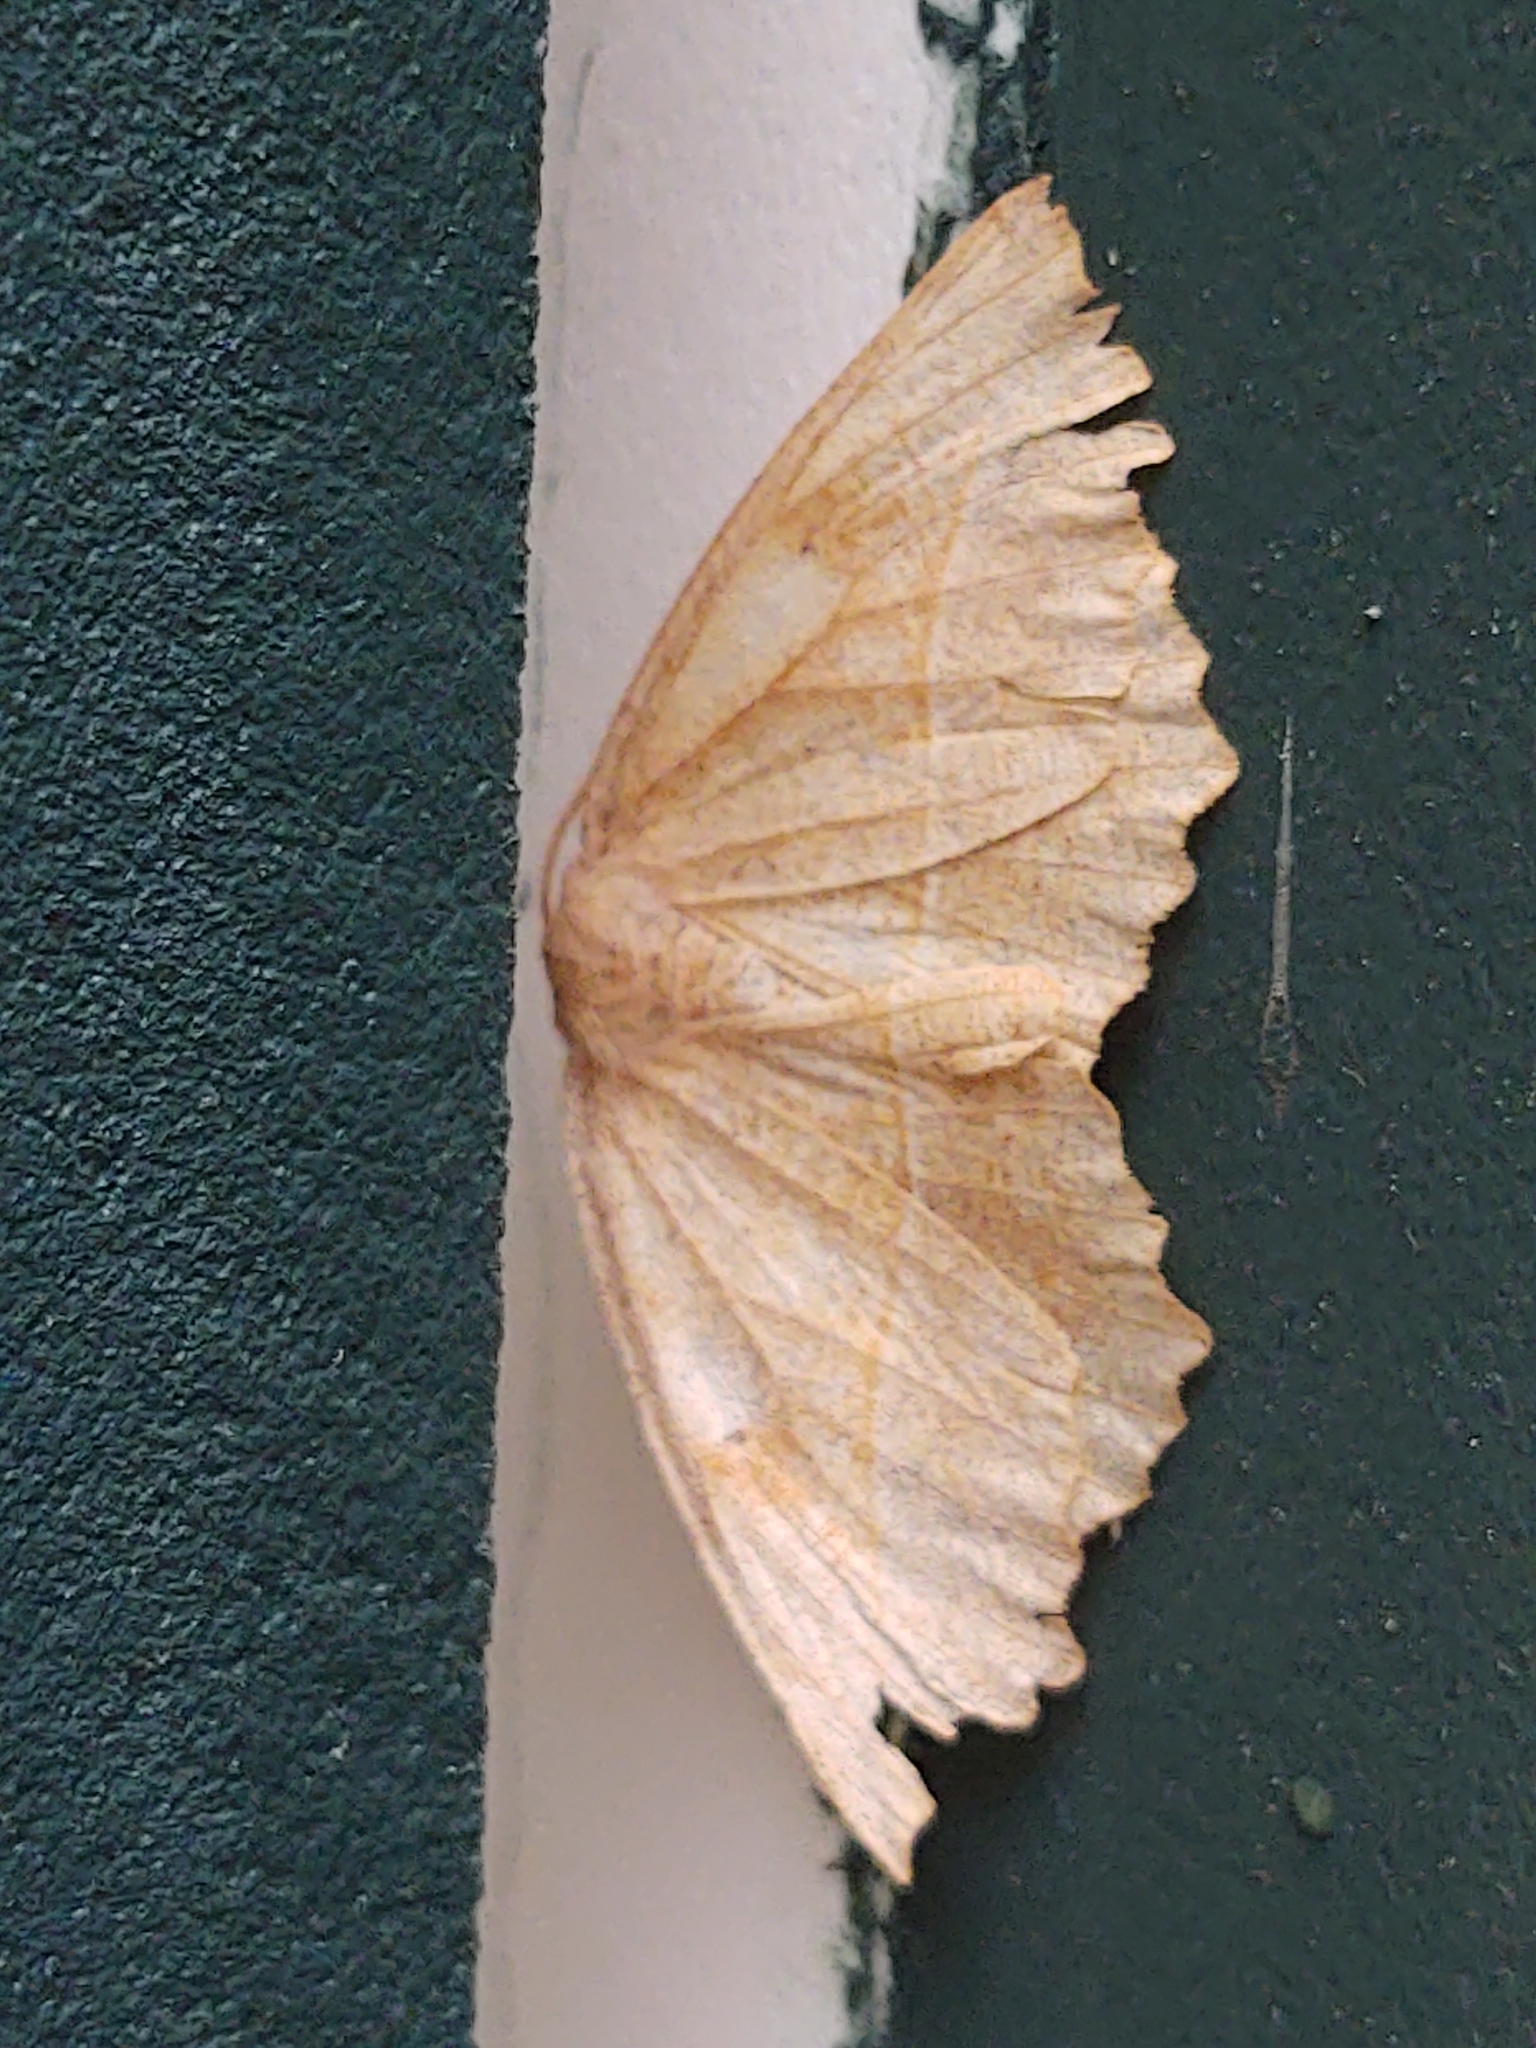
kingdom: Animalia
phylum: Arthropoda
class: Insecta
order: Lepidoptera
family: Geometridae
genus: Eutrapela
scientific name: Eutrapela clemataria
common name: Curved-toothed geometer
